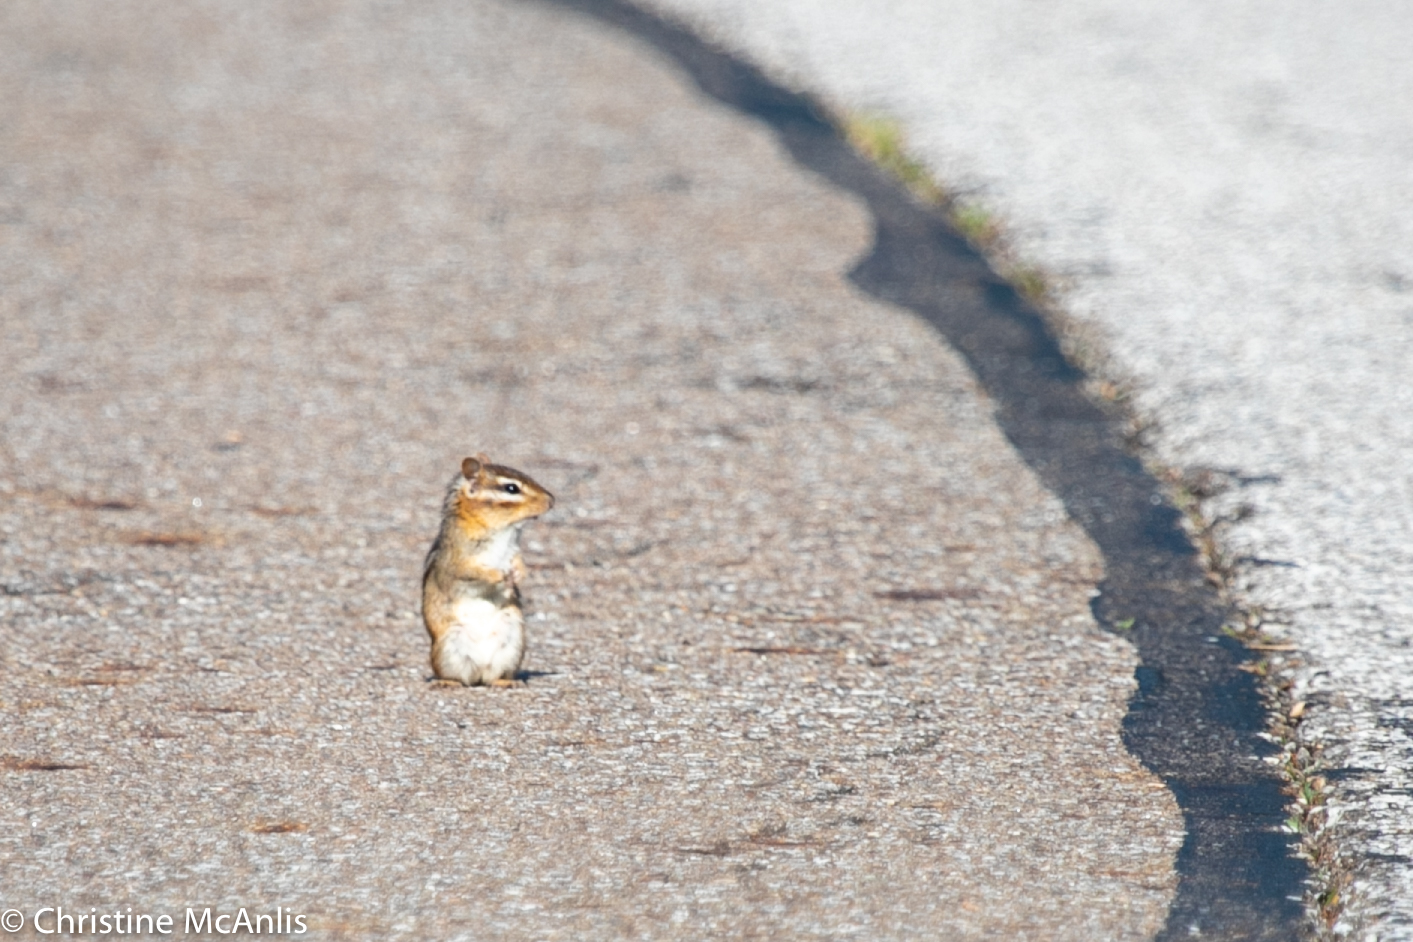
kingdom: Animalia
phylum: Chordata
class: Mammalia
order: Rodentia
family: Sciuridae
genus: Tamias
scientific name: Tamias striatus
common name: Eastern chipmunk
